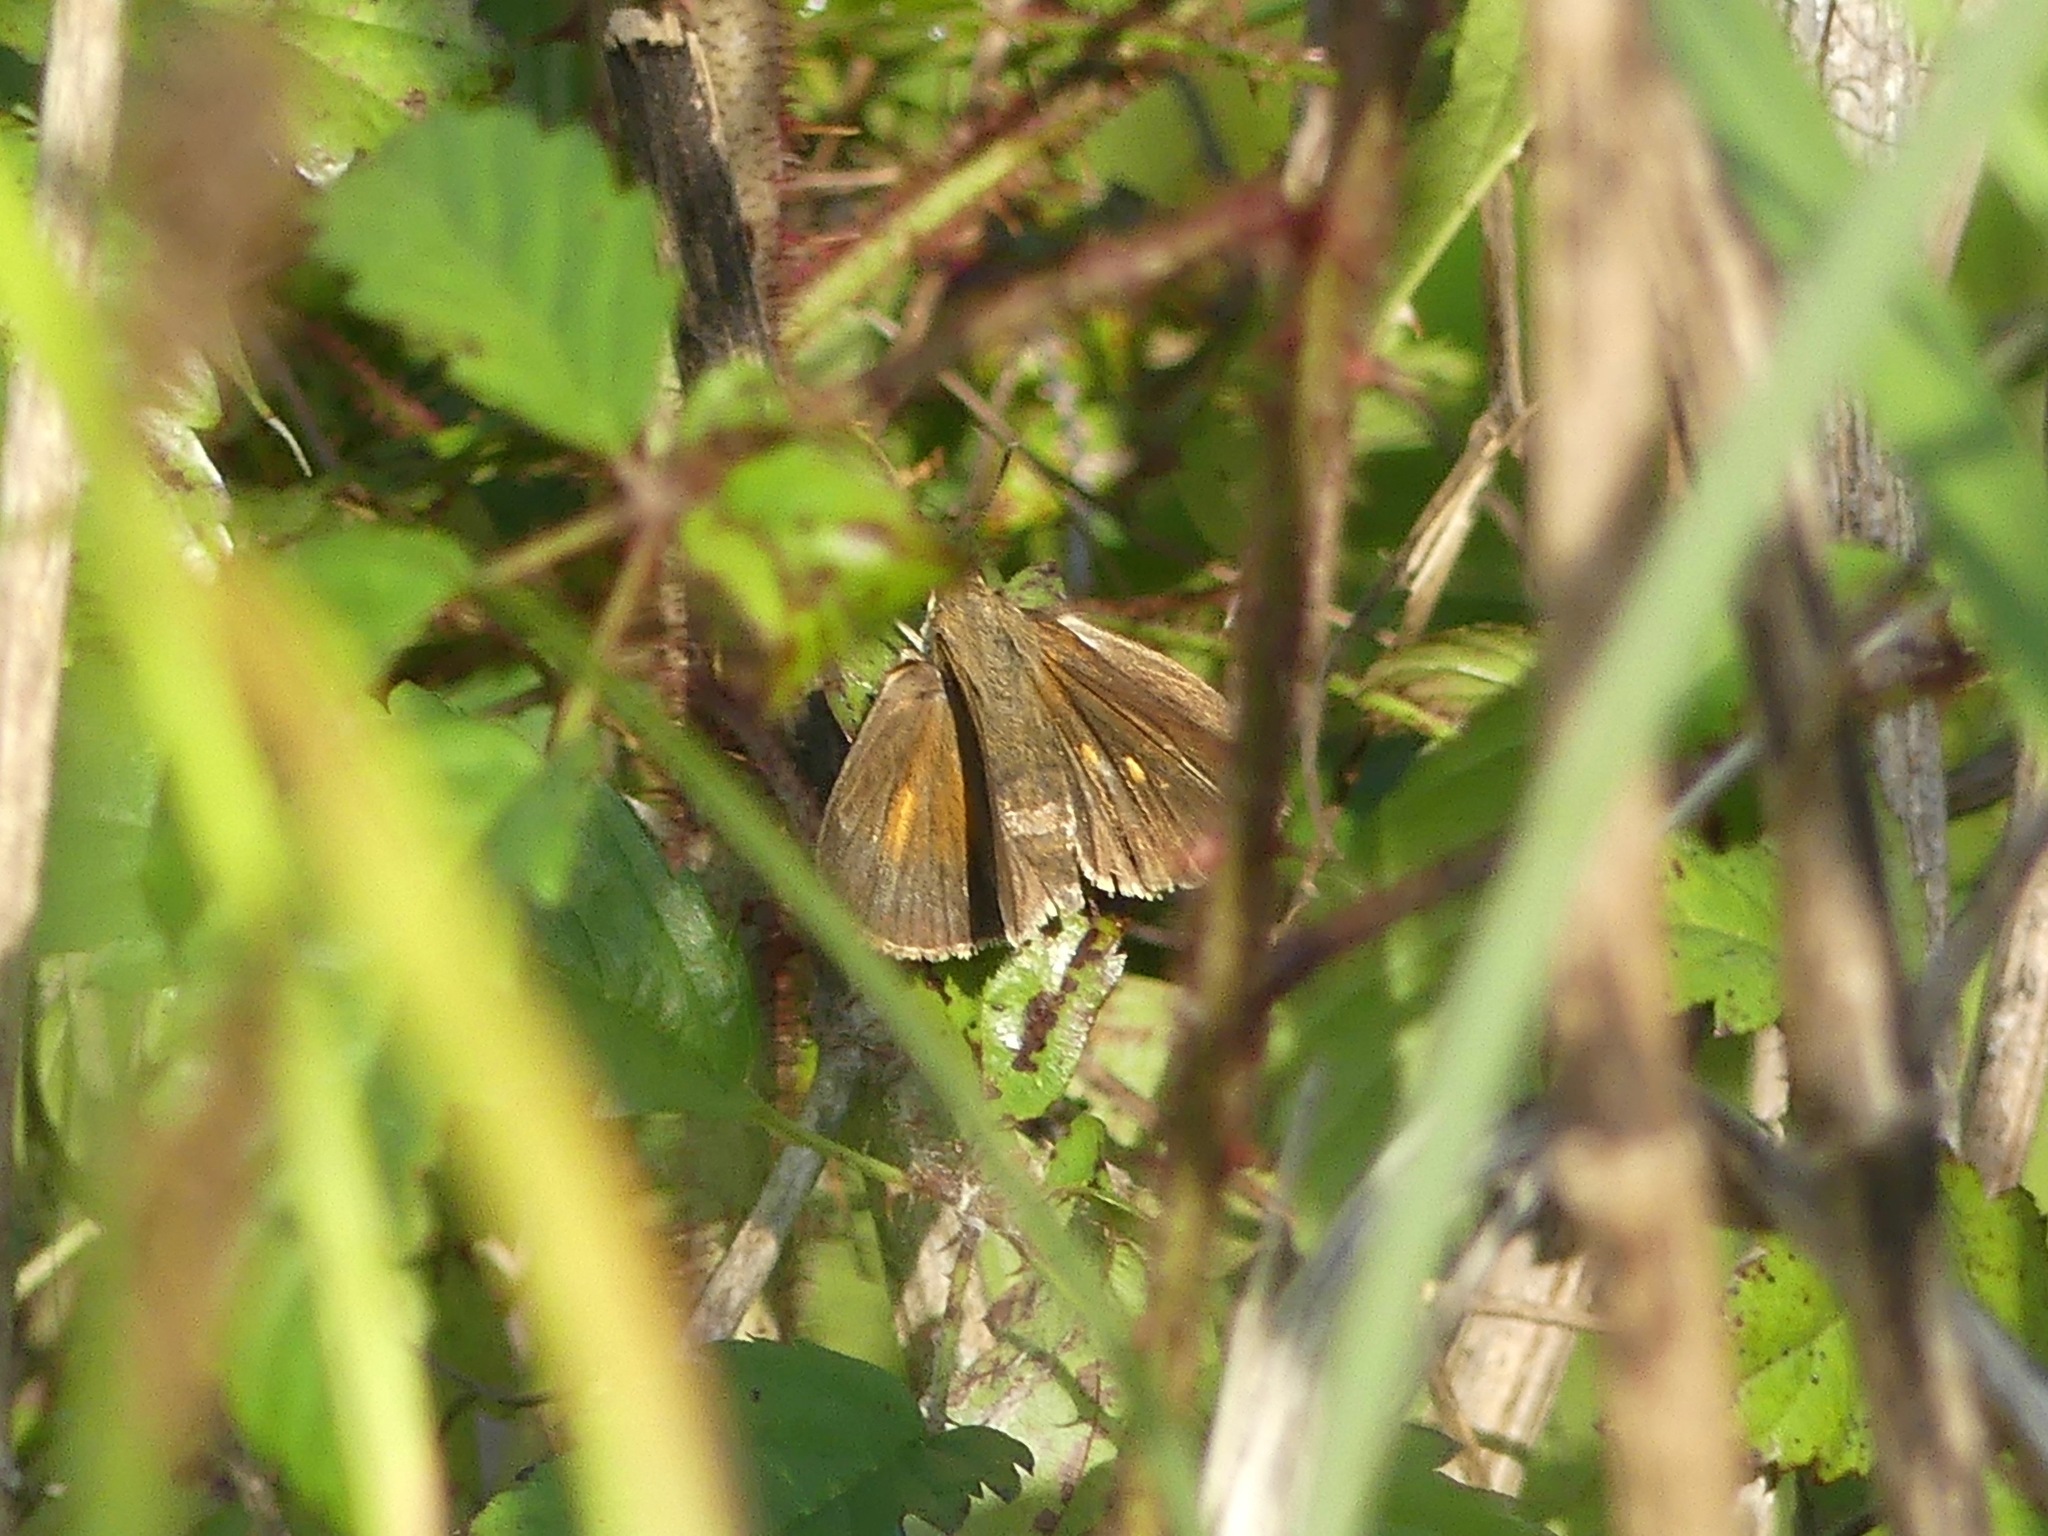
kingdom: Animalia
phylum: Arthropoda
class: Insecta
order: Lepidoptera
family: Hesperiidae
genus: Euphyes
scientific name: Euphyes dukesi
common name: Dukes' skipper
